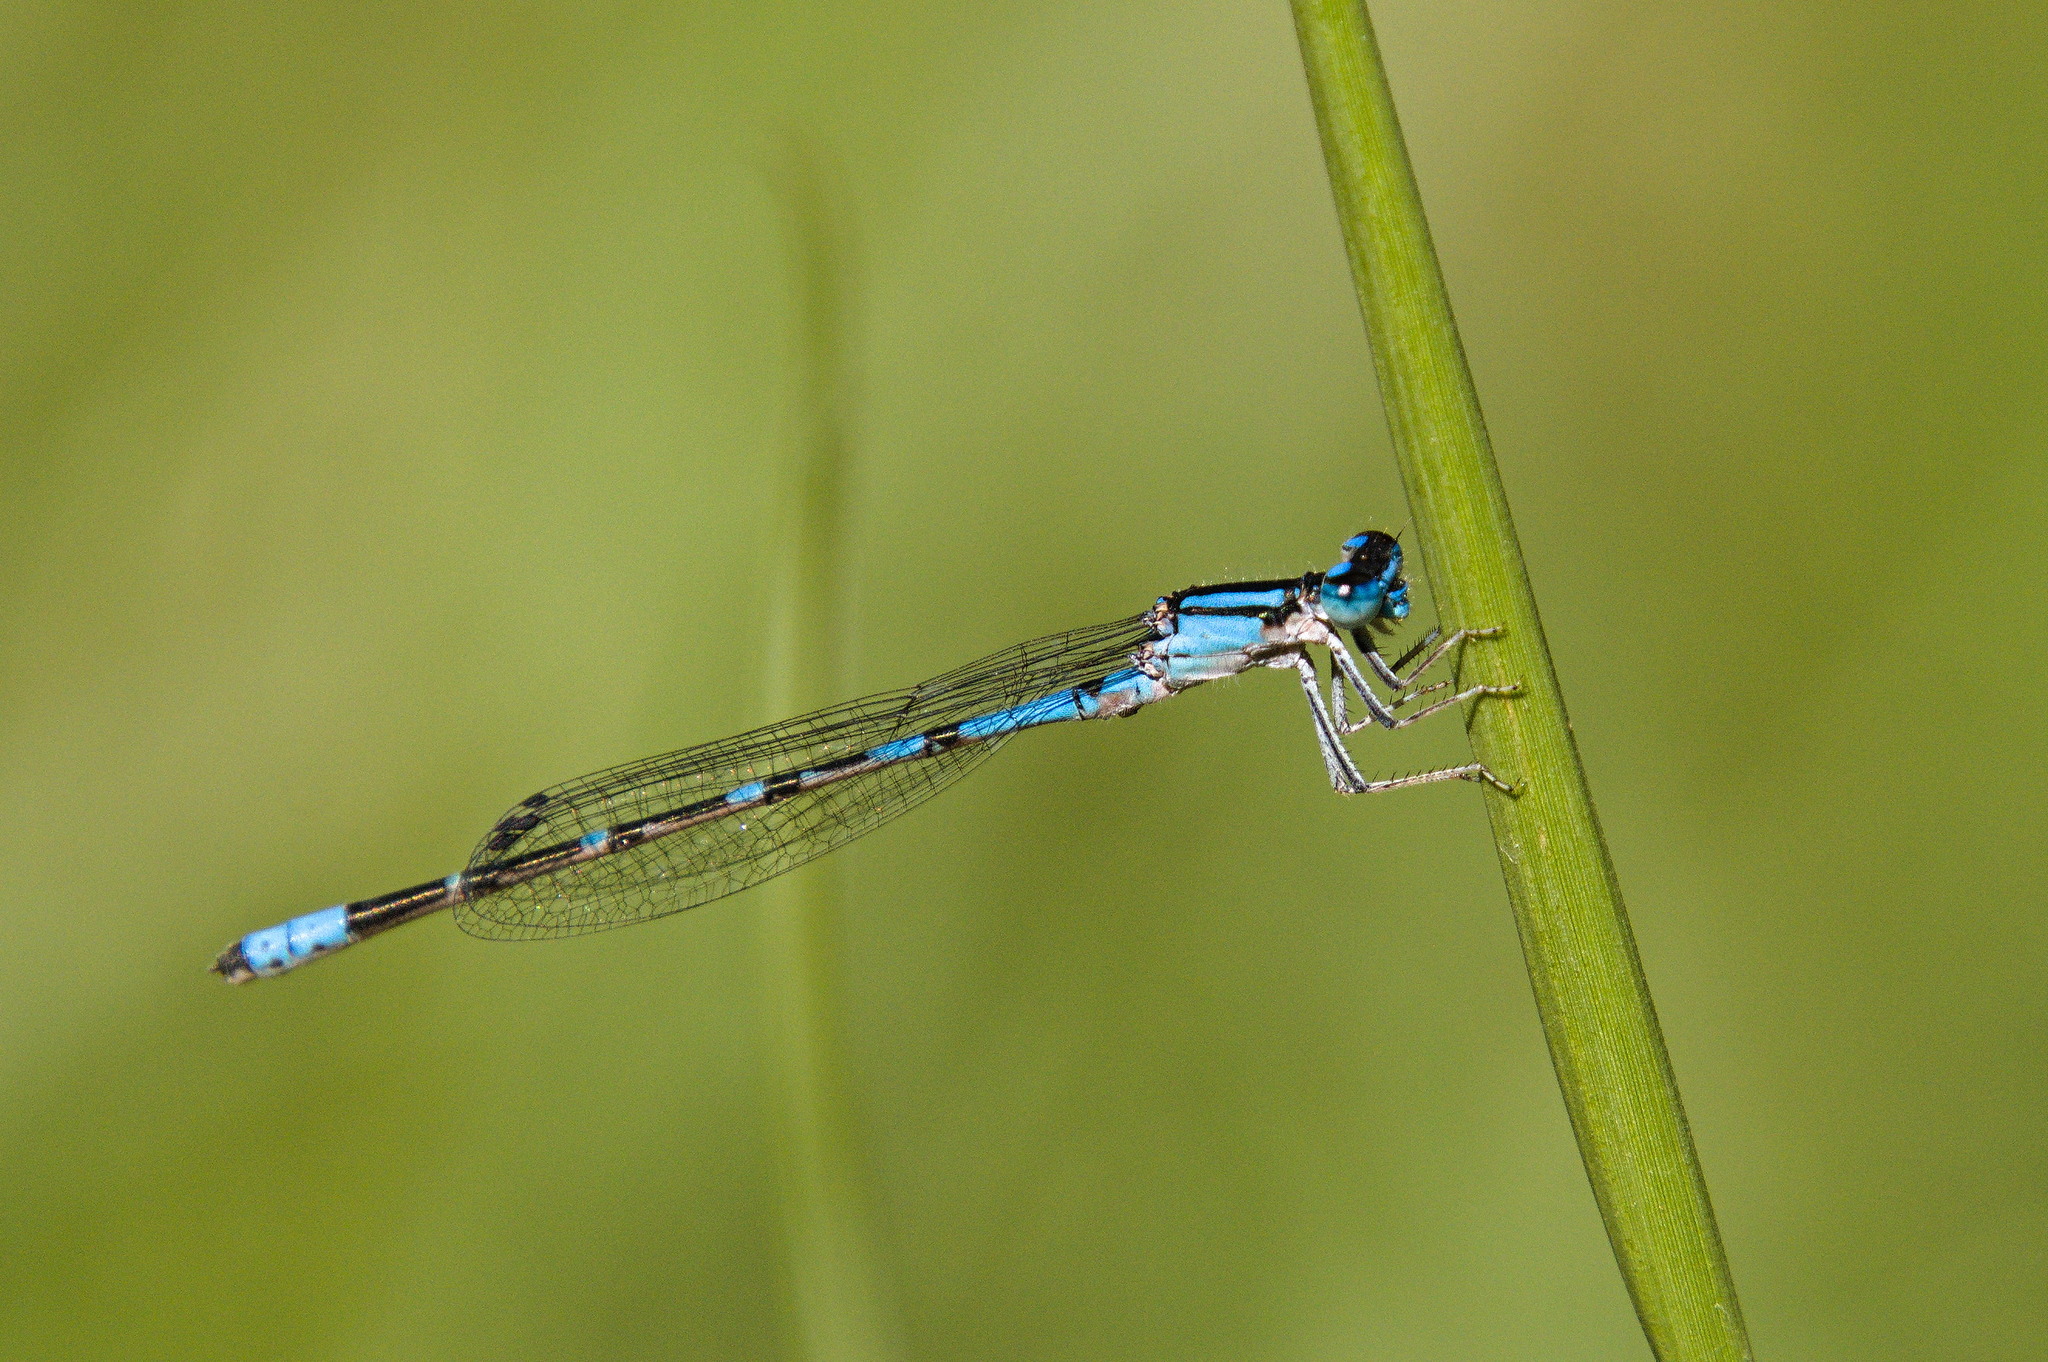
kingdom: Animalia
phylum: Arthropoda
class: Insecta
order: Odonata
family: Coenagrionidae
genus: Enallagma
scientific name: Enallagma praevarum
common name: Arroyo bluet
